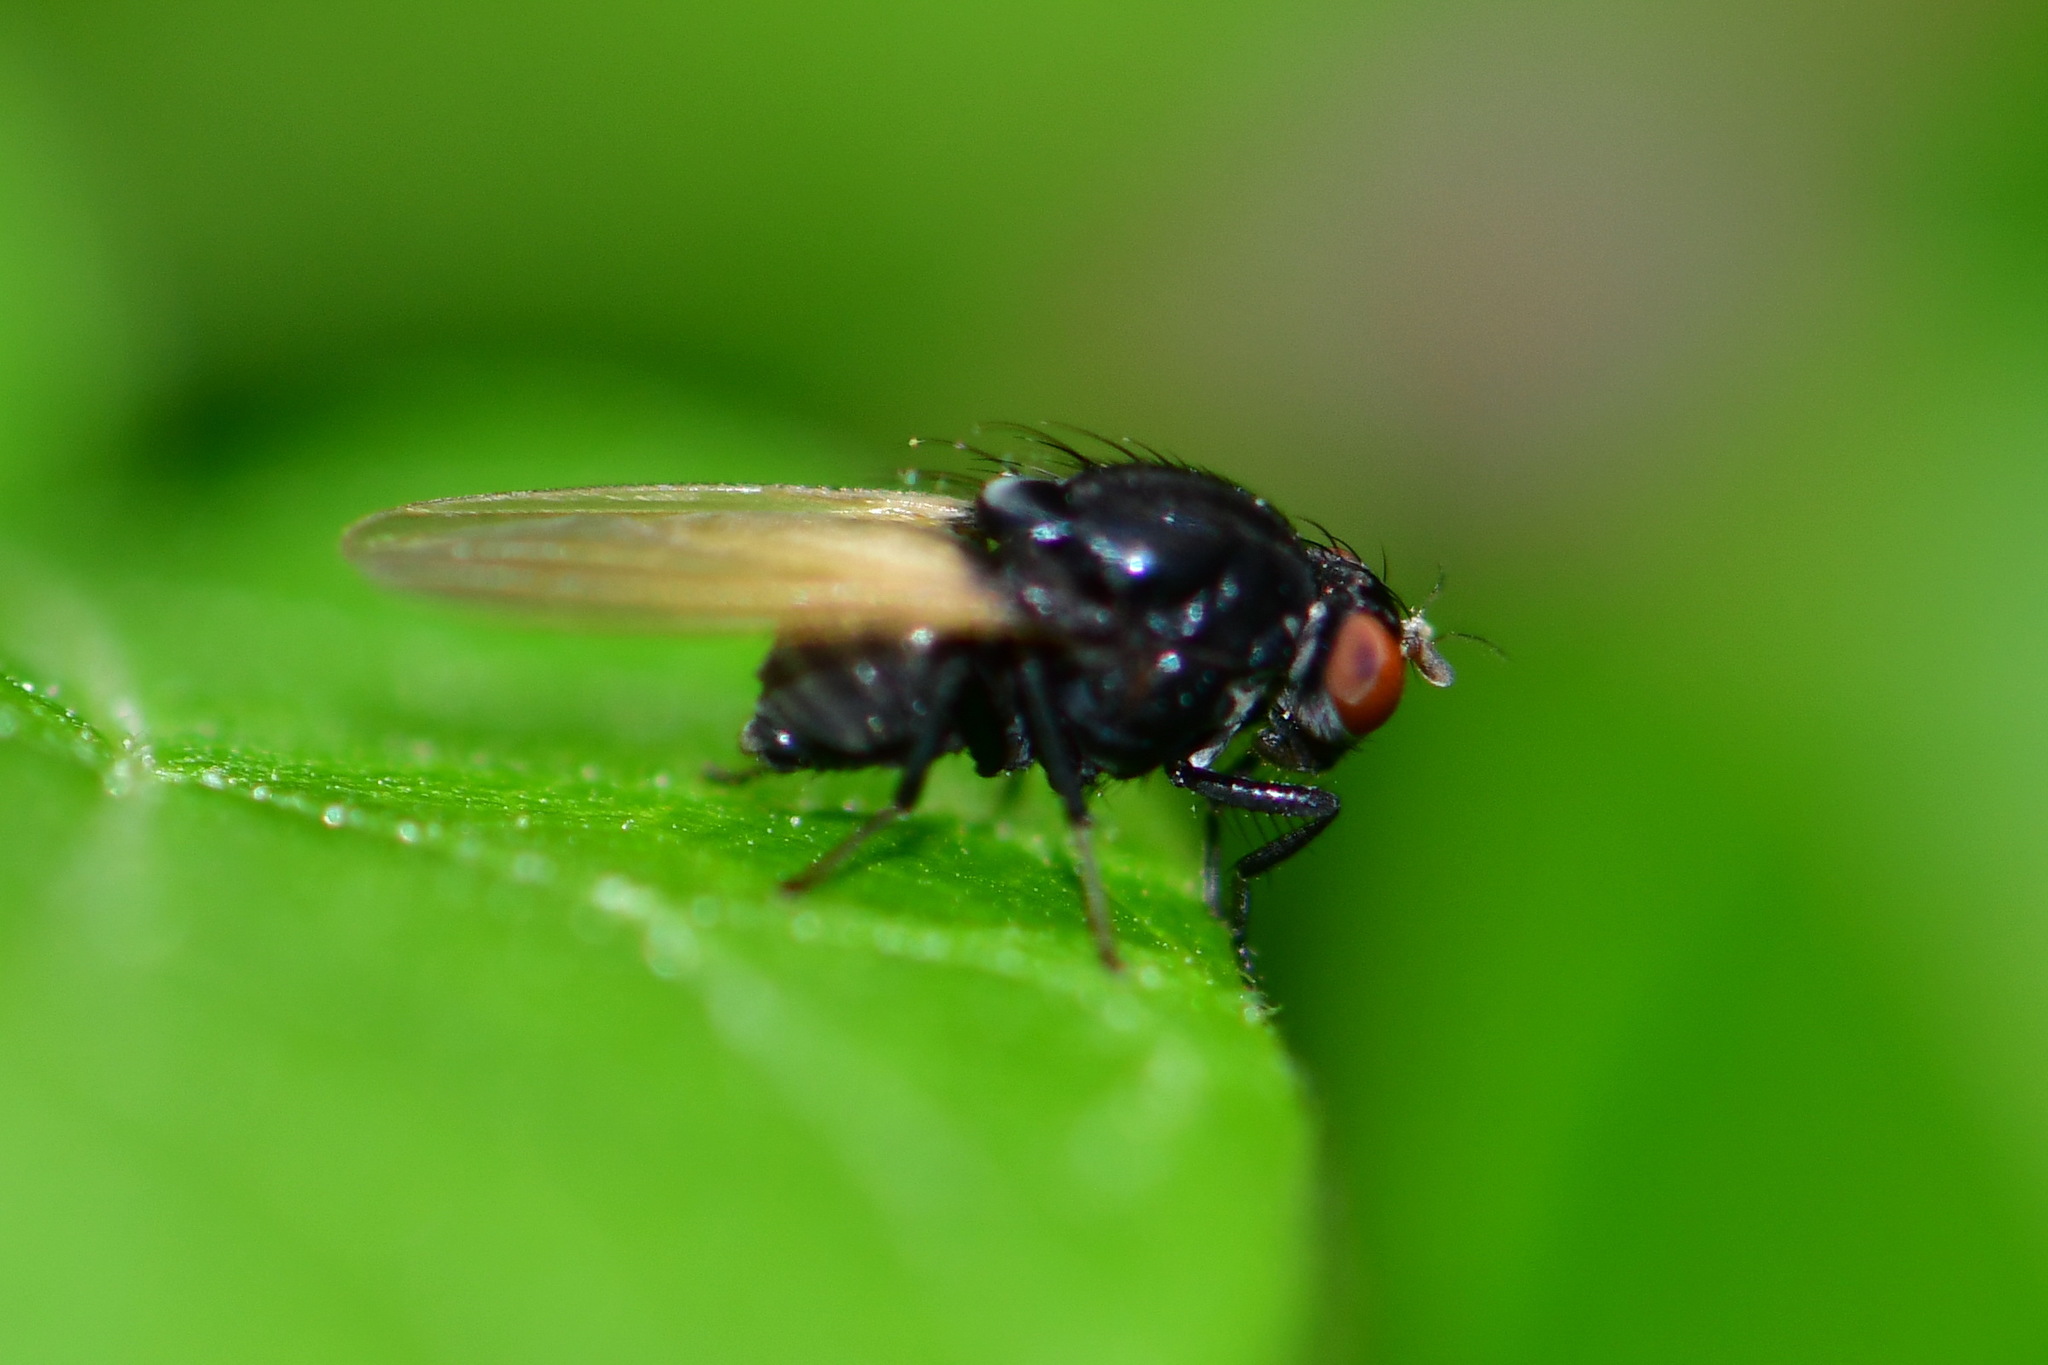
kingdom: Animalia
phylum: Arthropoda
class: Insecta
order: Diptera
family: Lauxaniidae
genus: Minettia
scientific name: Minettia longipennis
